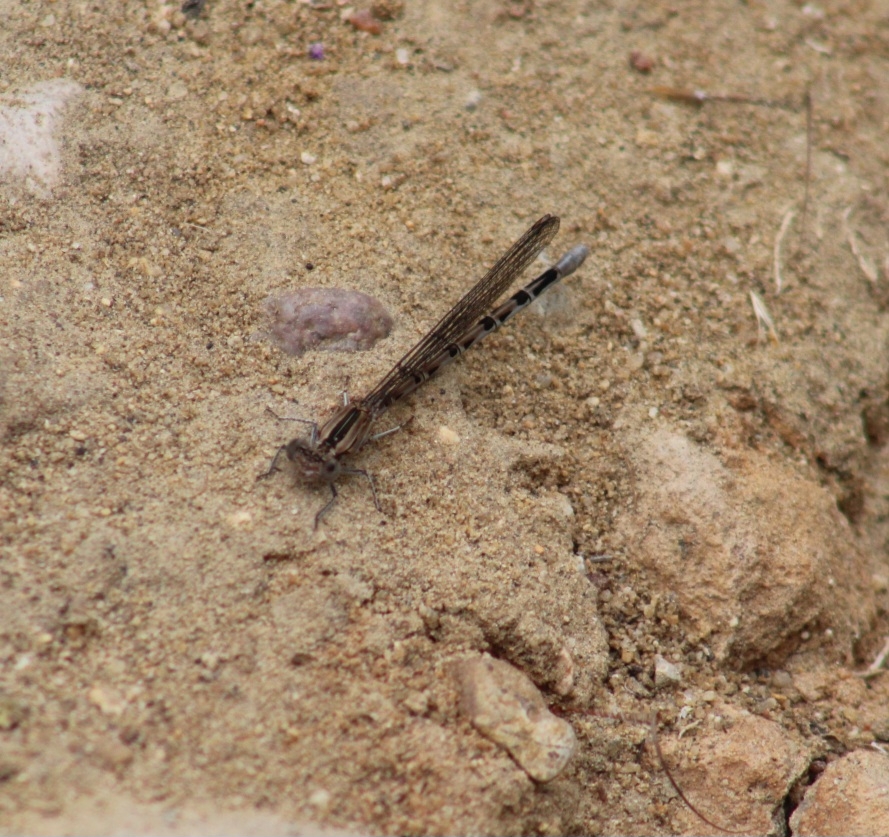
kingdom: Animalia
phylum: Arthropoda
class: Insecta
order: Odonata
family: Coenagrionidae
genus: Argia
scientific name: Argia vivida
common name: Vivid dancer
